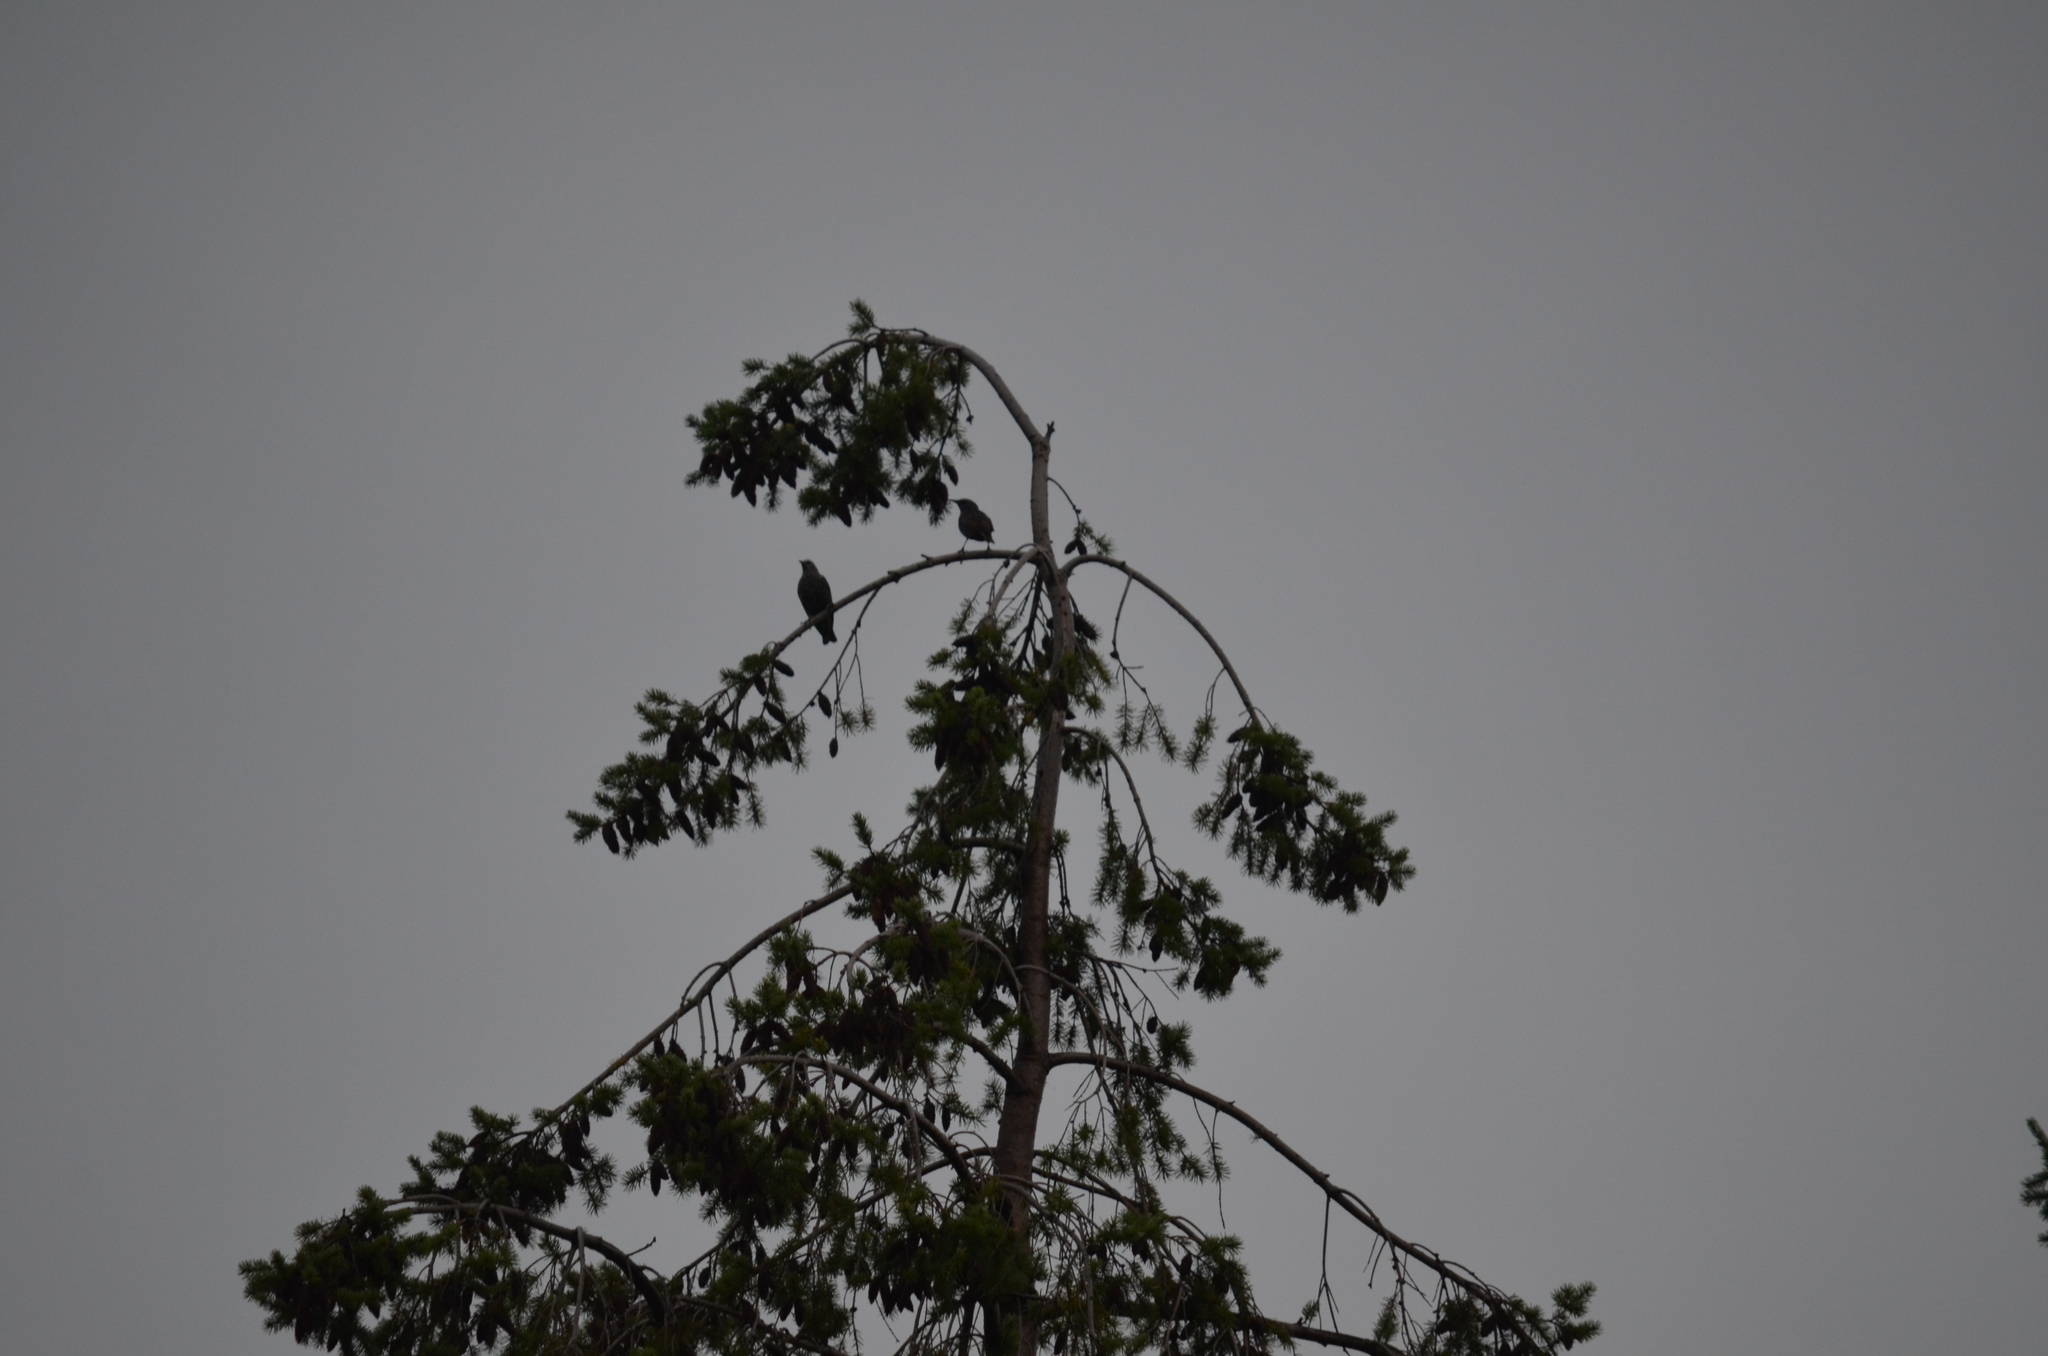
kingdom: Animalia
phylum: Chordata
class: Aves
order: Passeriformes
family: Sturnidae
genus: Sturnus
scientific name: Sturnus vulgaris
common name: Common starling
